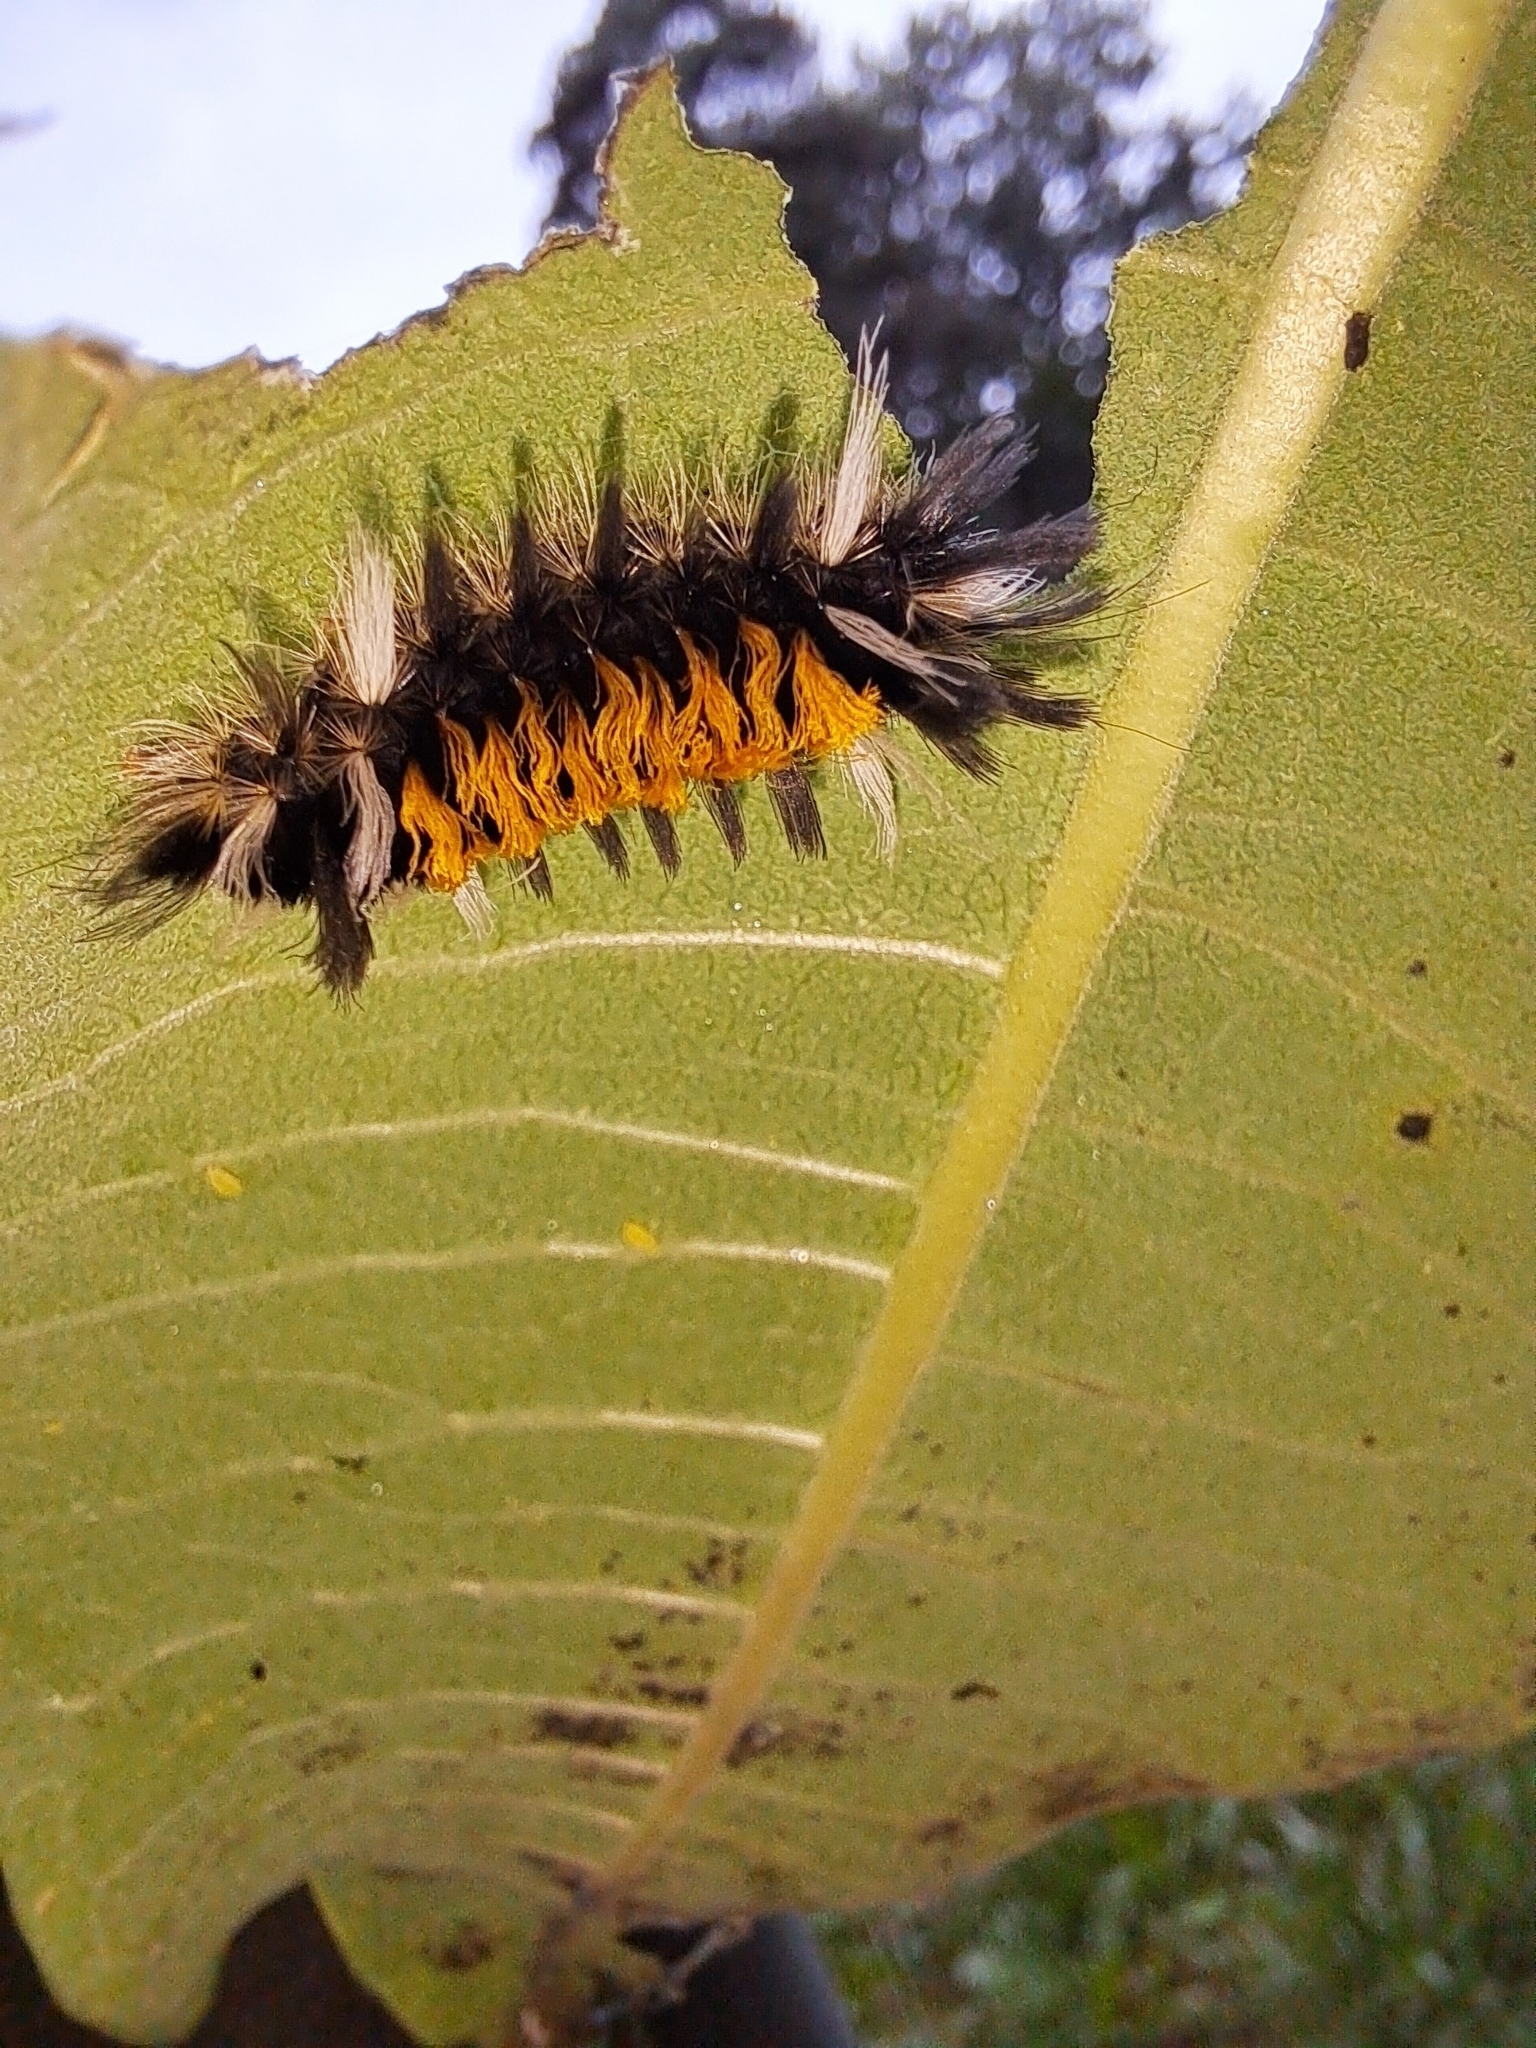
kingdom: Animalia
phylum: Arthropoda
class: Insecta
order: Lepidoptera
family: Erebidae
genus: Euchaetes
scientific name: Euchaetes egle
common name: Milkweed tussock moth
